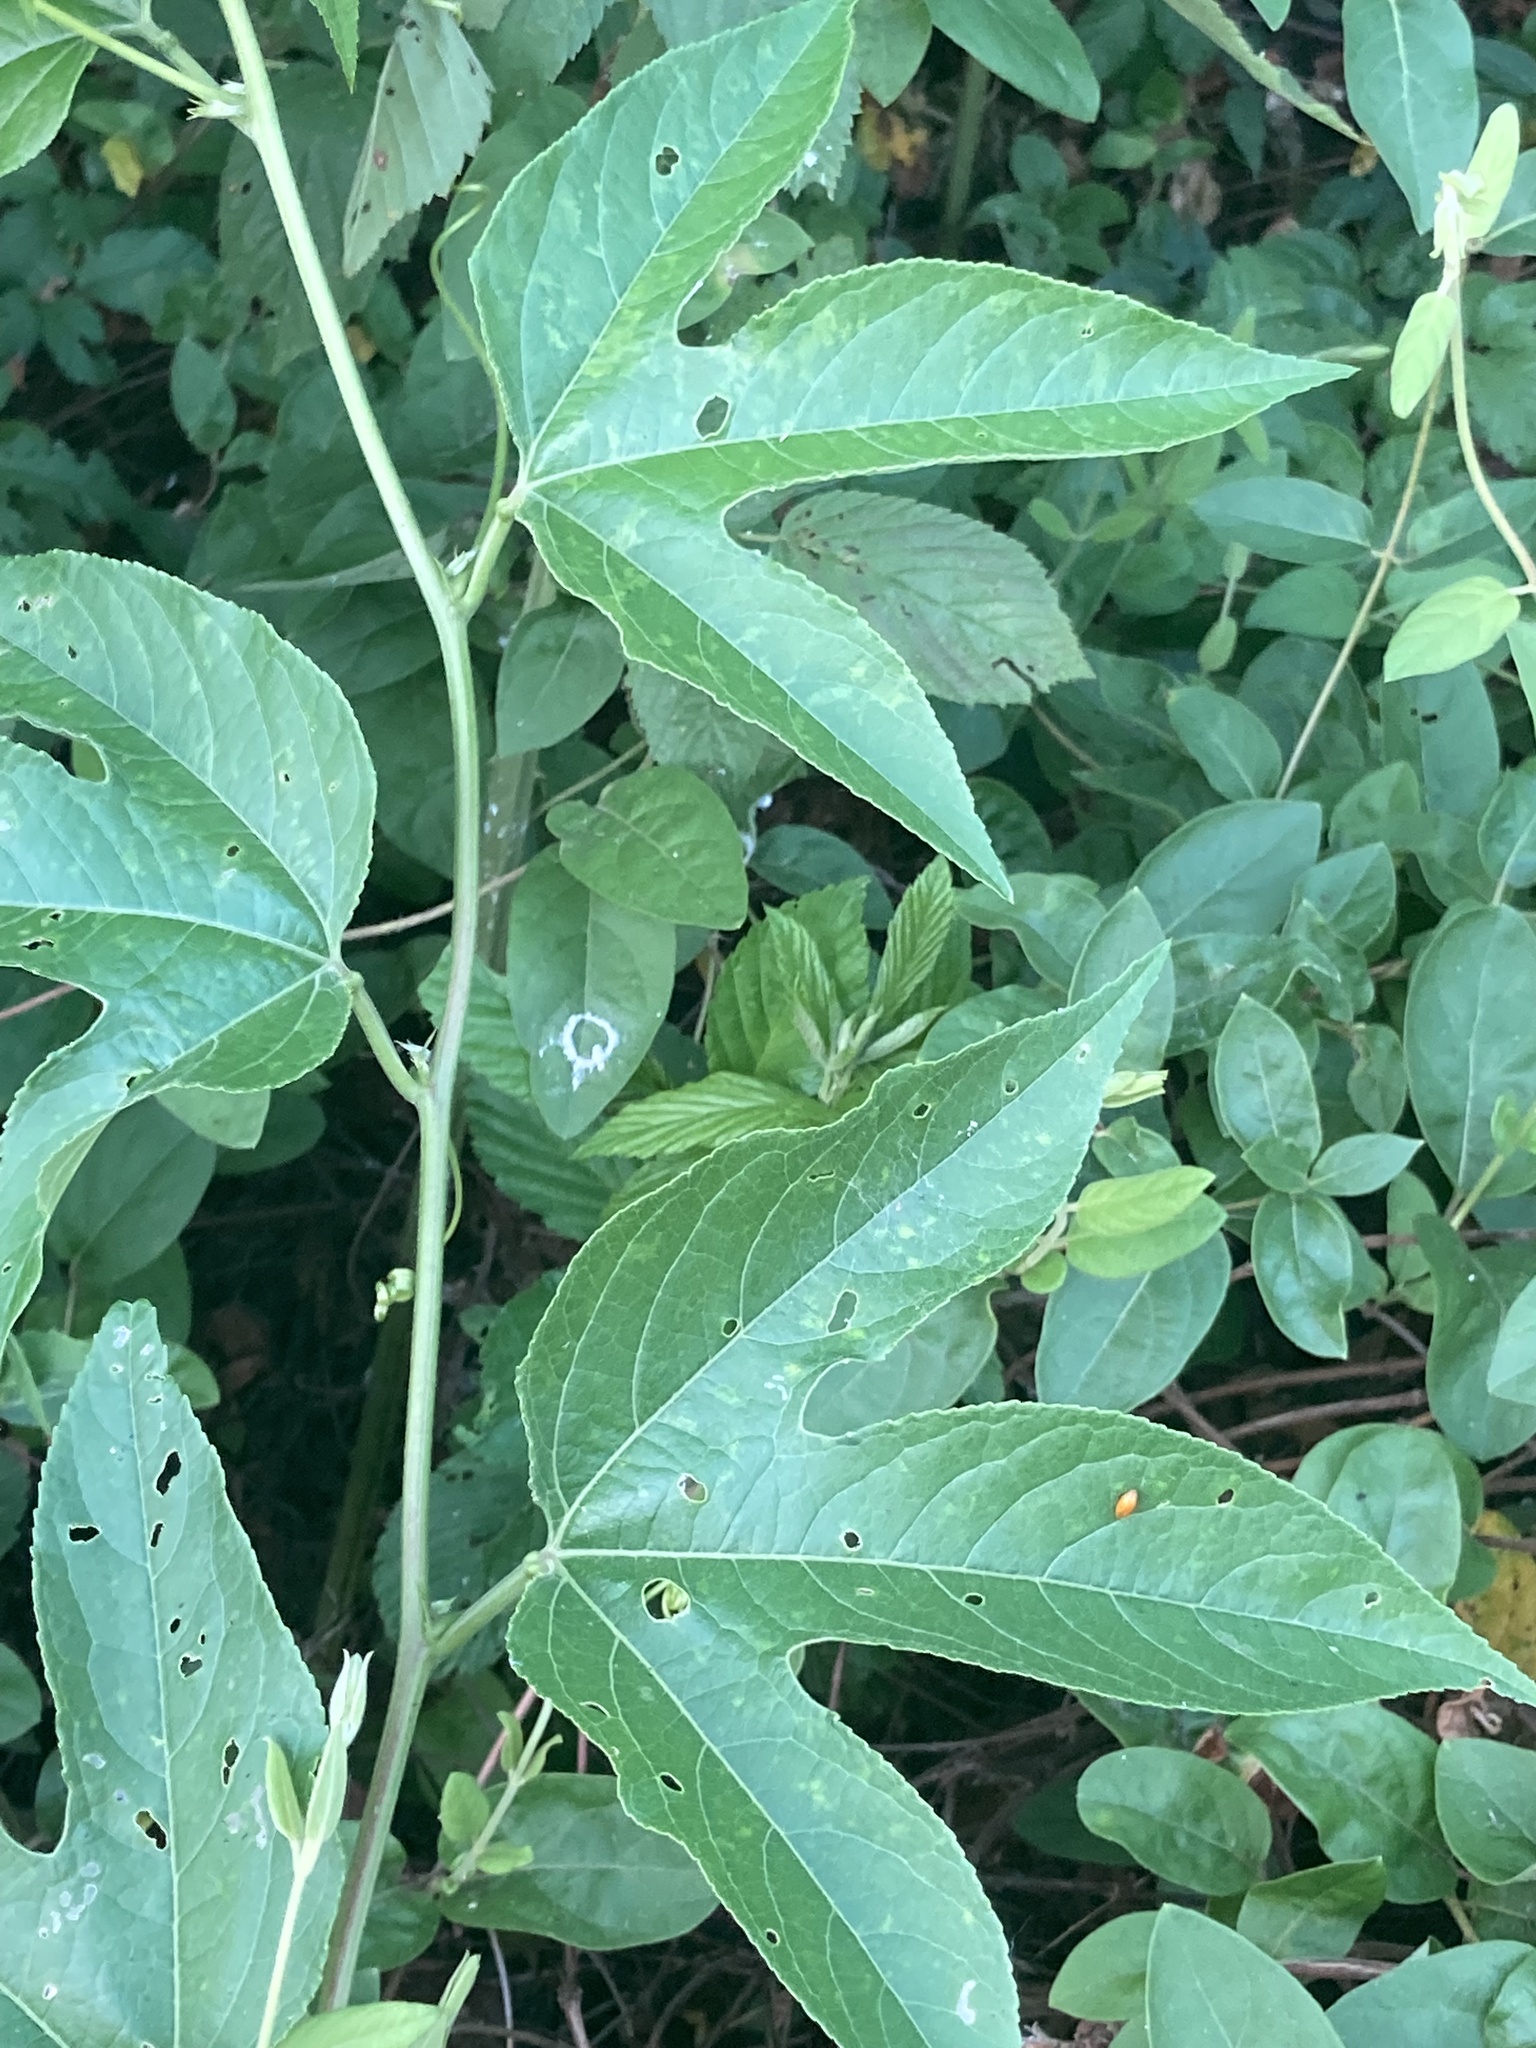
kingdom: Plantae
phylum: Tracheophyta
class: Magnoliopsida
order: Malpighiales
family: Passifloraceae
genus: Passiflora
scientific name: Passiflora incarnata
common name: Apricot-vine
